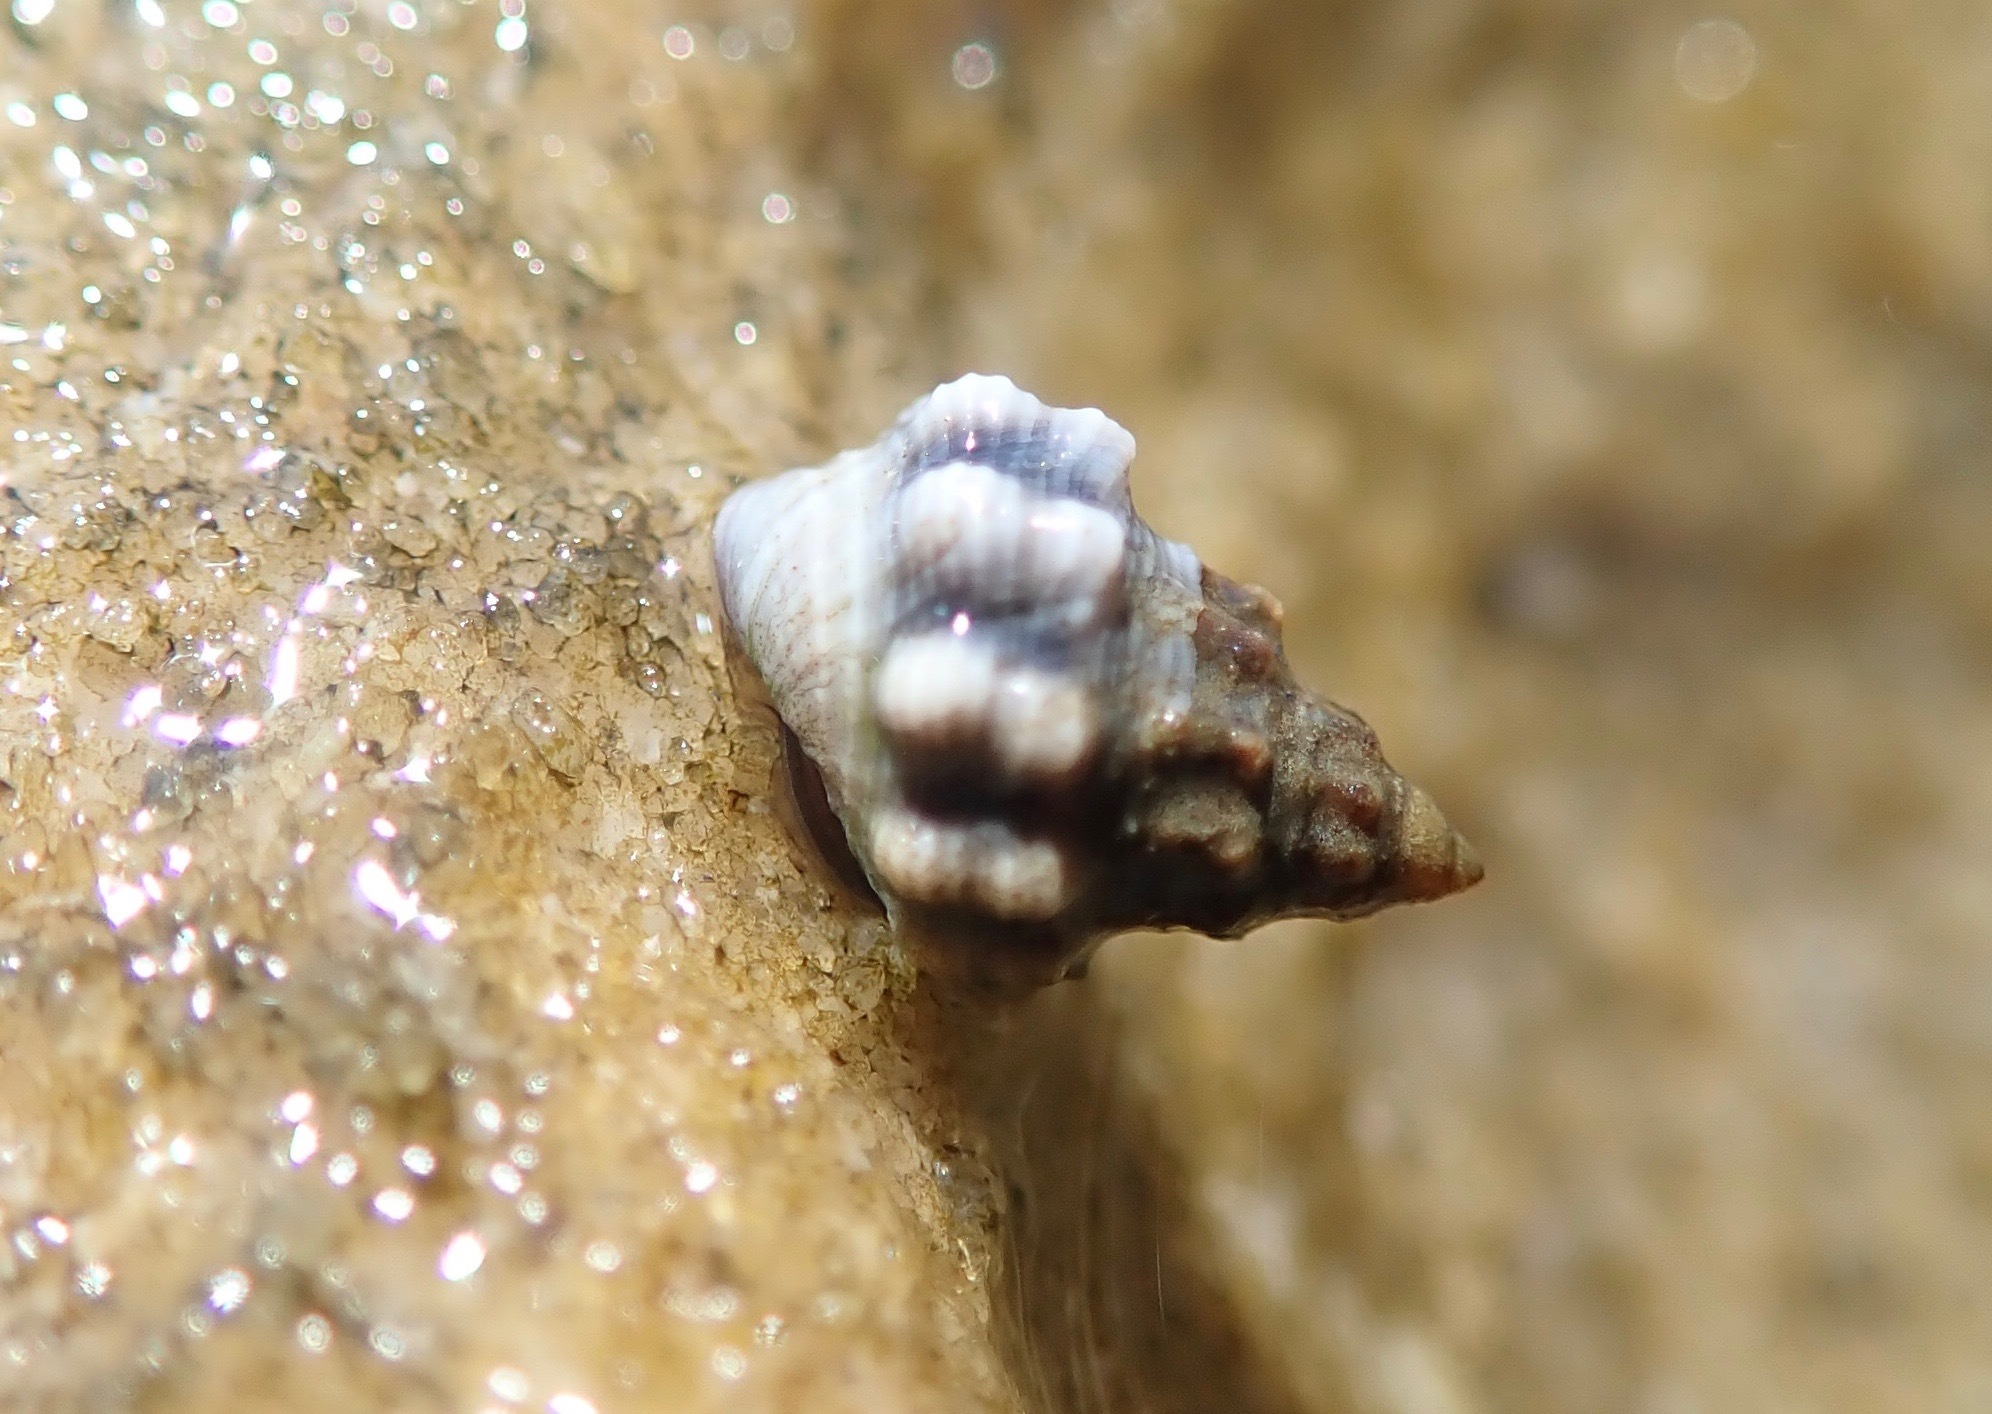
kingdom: Animalia
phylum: Mollusca
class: Gastropoda
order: Littorinimorpha
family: Littorinidae
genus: Nodilittorina
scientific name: Nodilittorina pyramidalis
